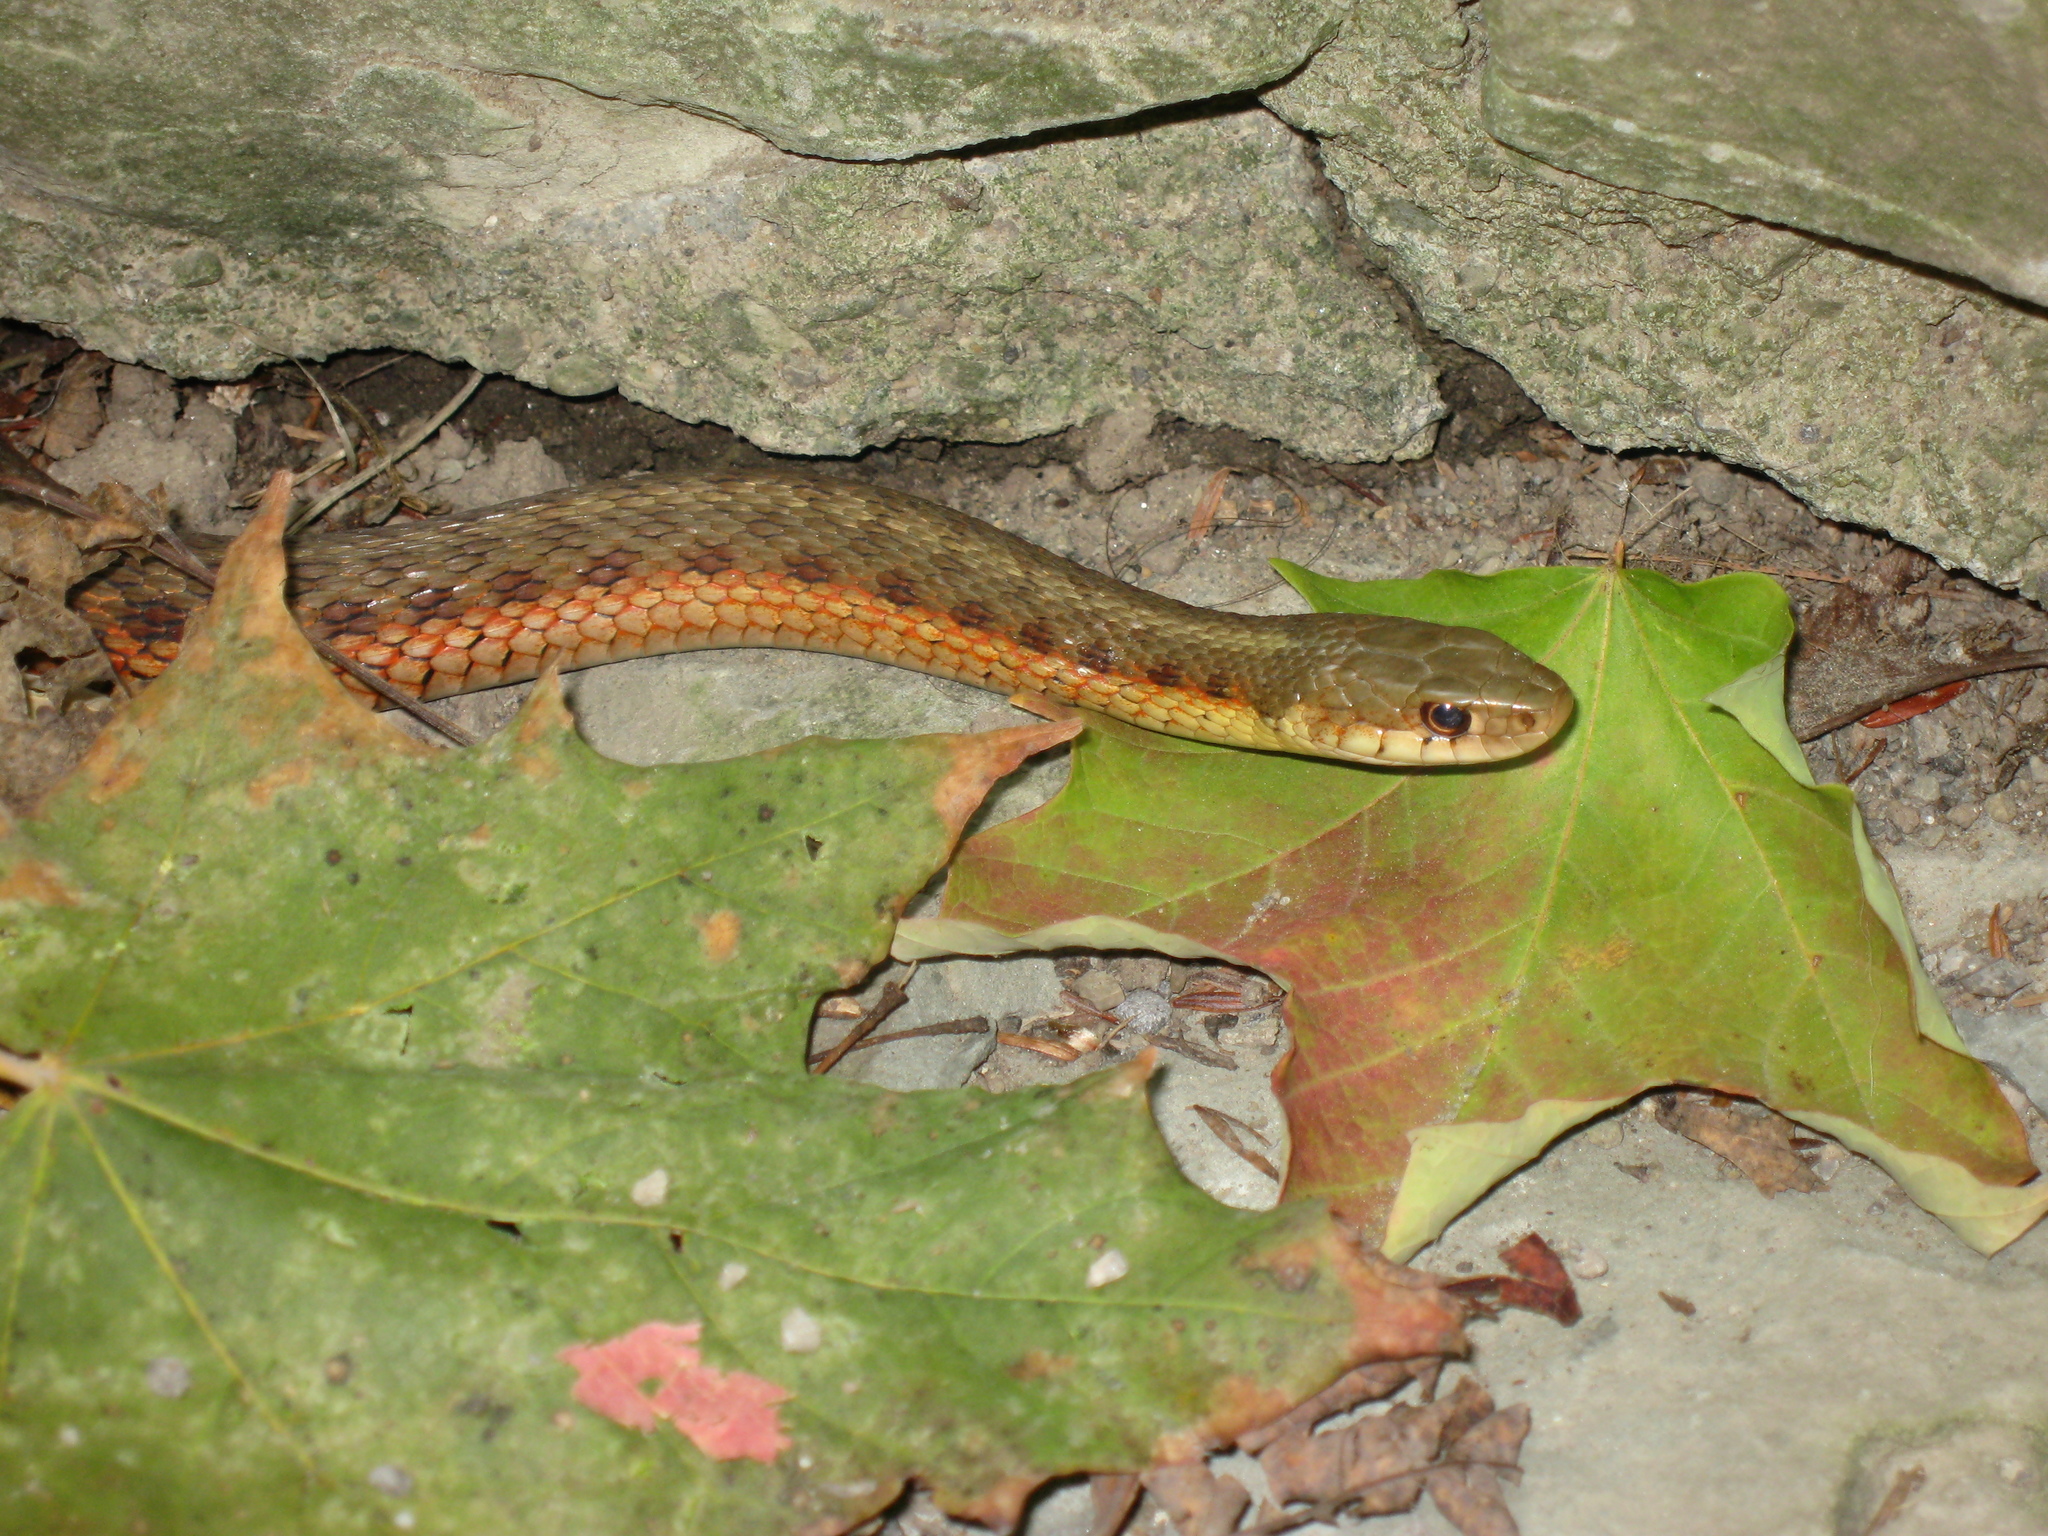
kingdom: Animalia
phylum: Chordata
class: Squamata
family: Colubridae
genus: Thamnophis
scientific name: Thamnophis sirtalis
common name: Common garter snake
